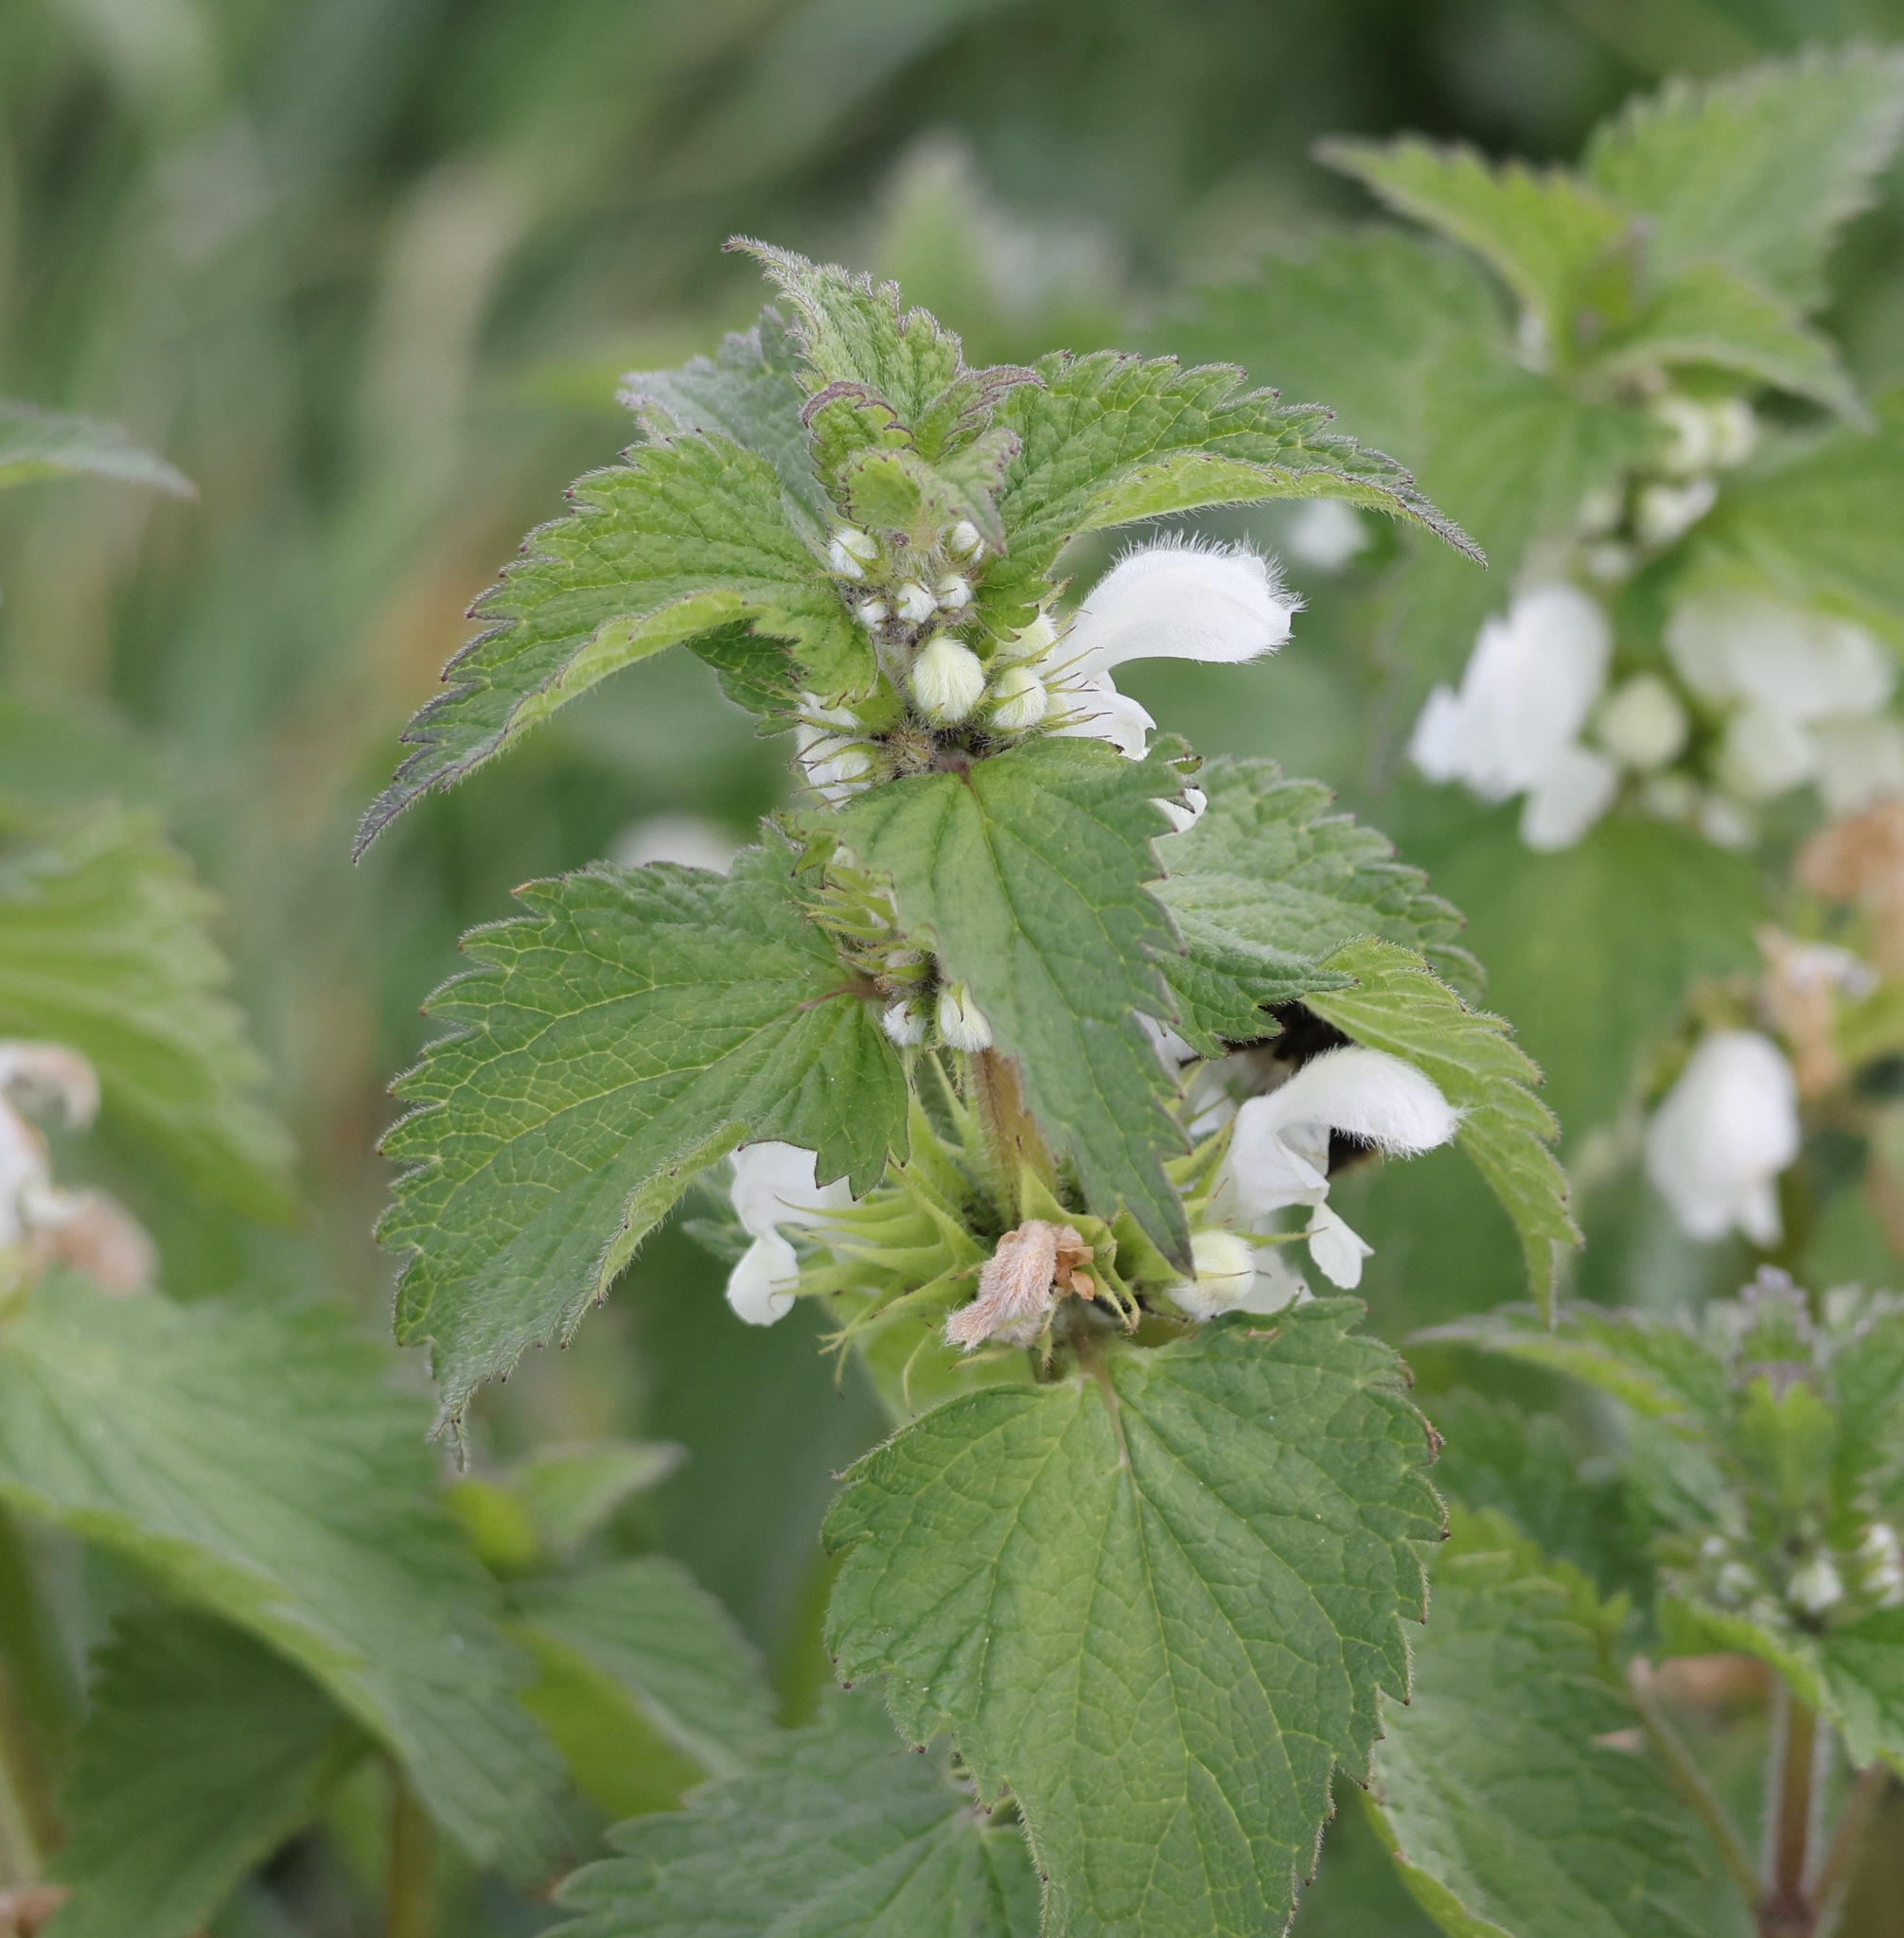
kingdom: Plantae
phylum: Tracheophyta
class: Magnoliopsida
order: Lamiales
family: Lamiaceae
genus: Lamium
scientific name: Lamium album
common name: White dead-nettle
